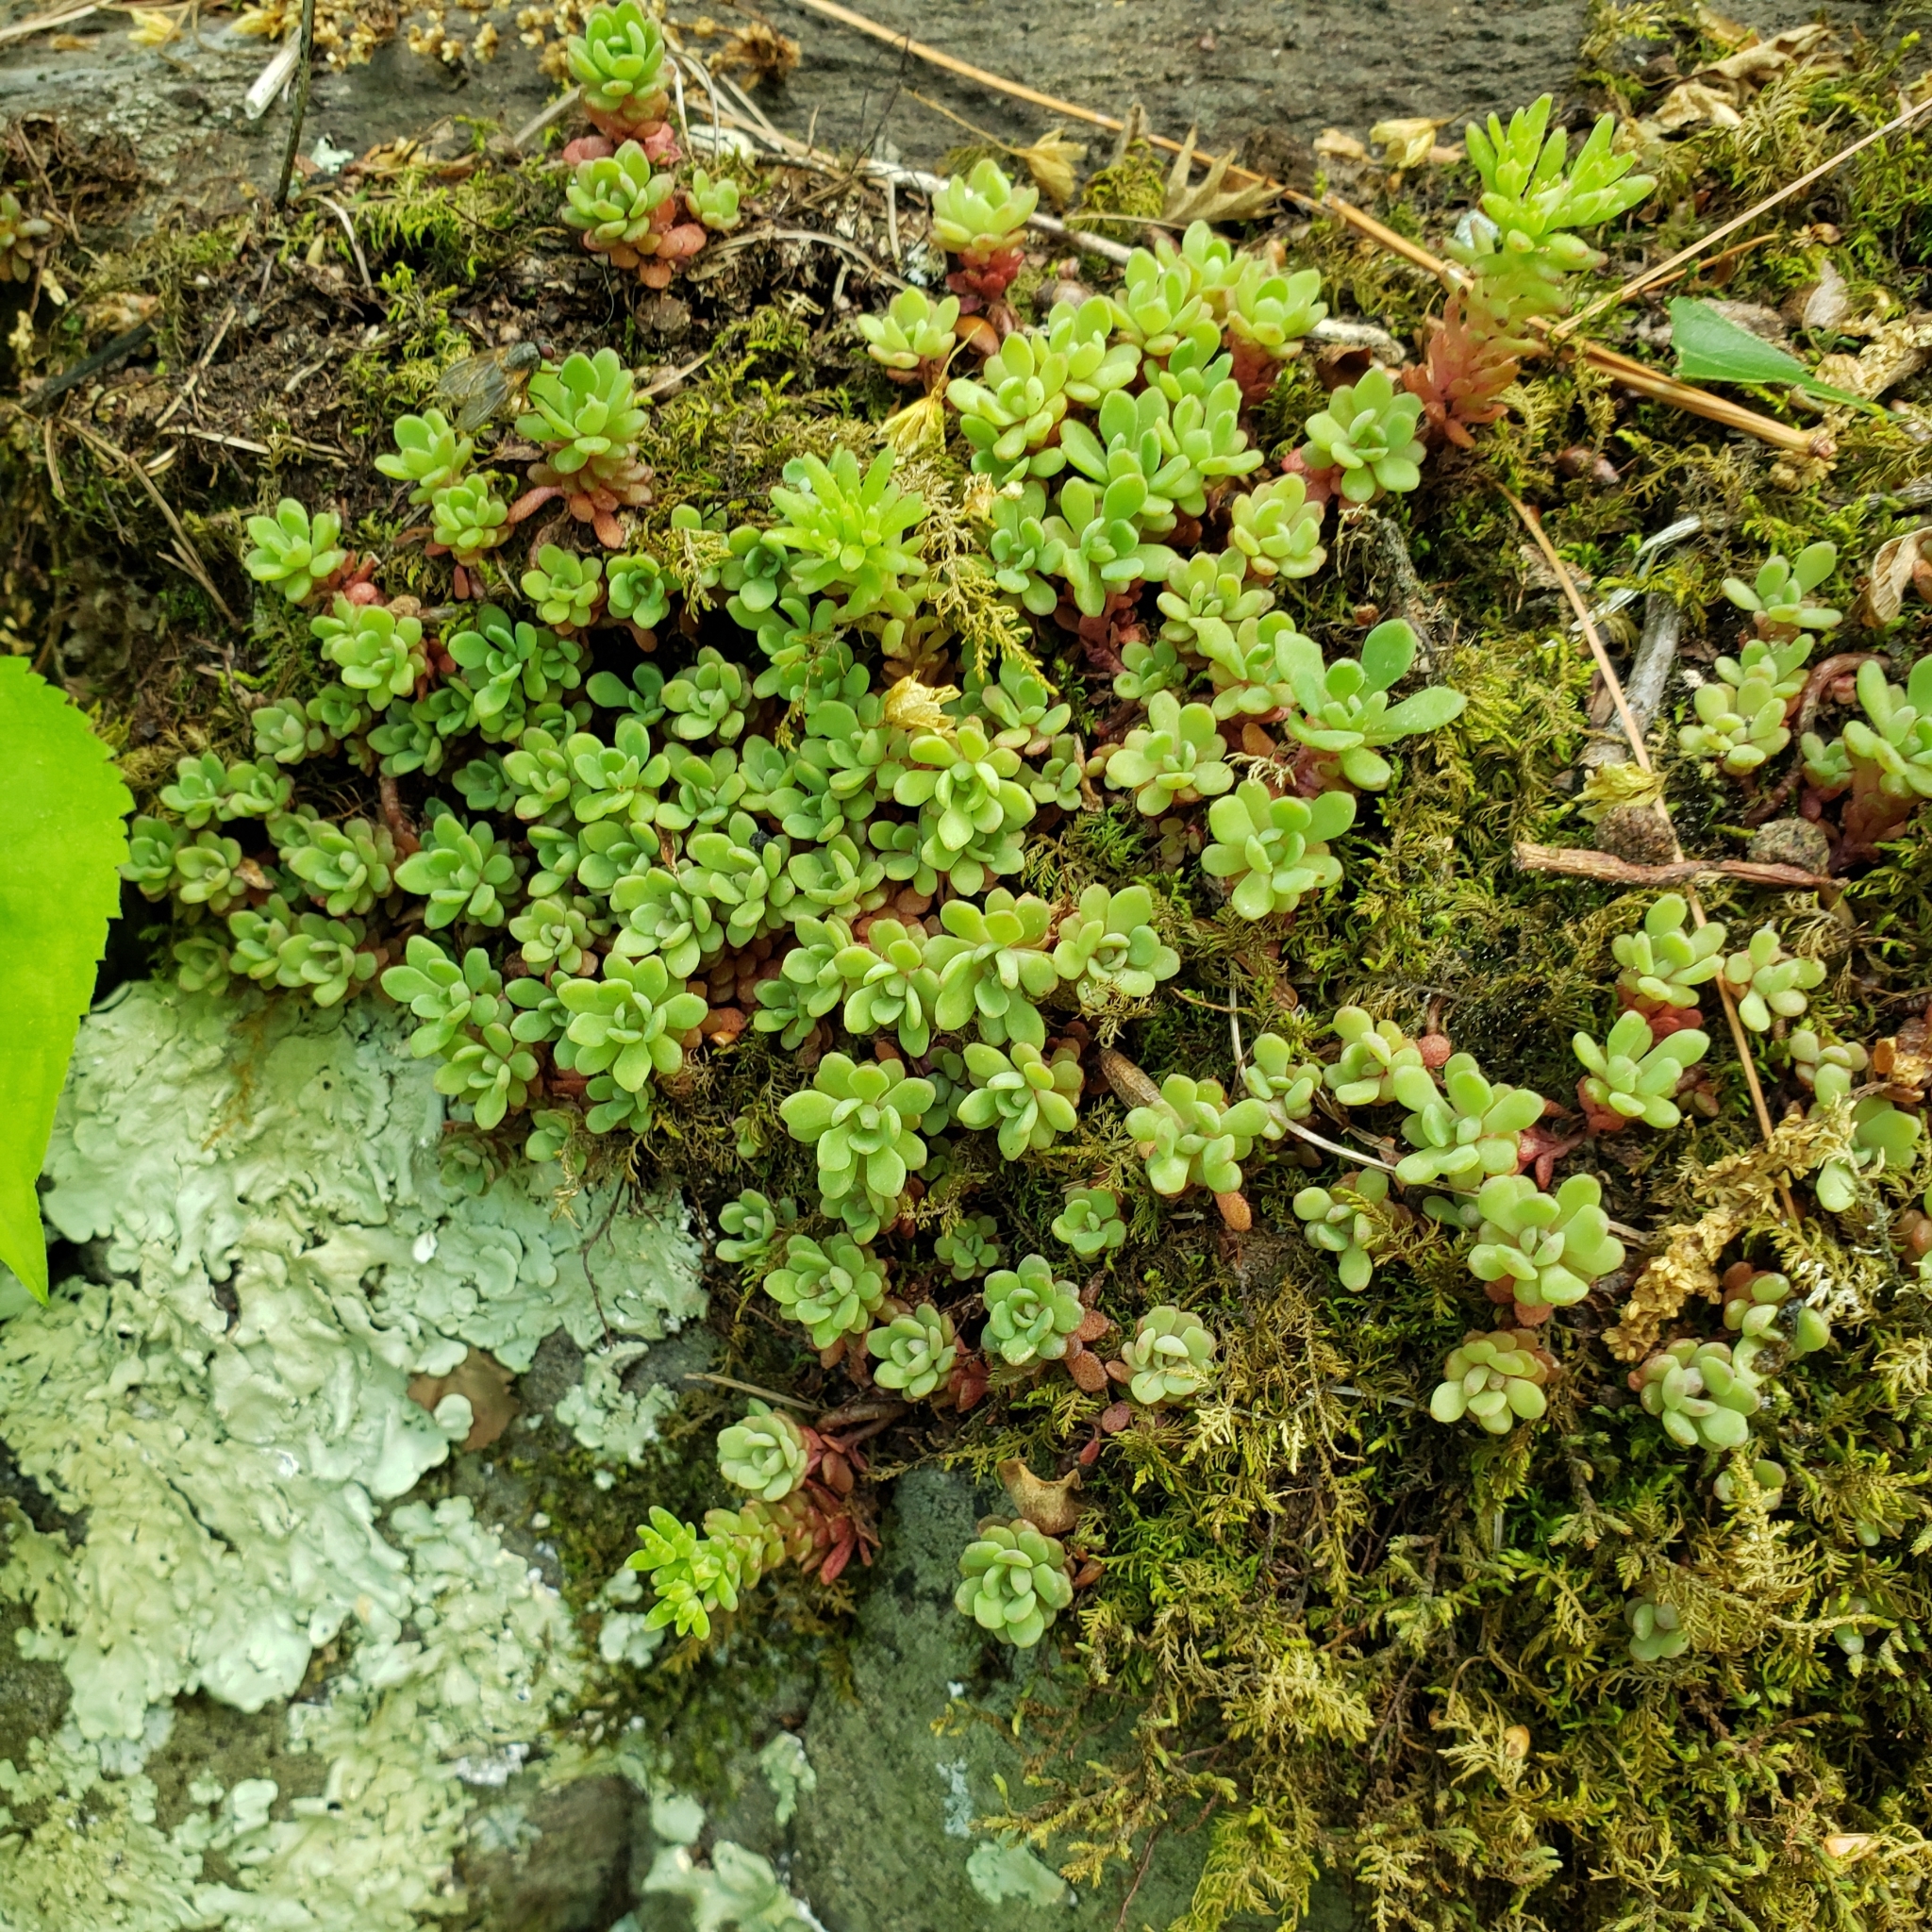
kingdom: Plantae
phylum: Tracheophyta
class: Magnoliopsida
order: Saxifragales
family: Crassulaceae
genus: Sedum
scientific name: Sedum glaucophyllum
